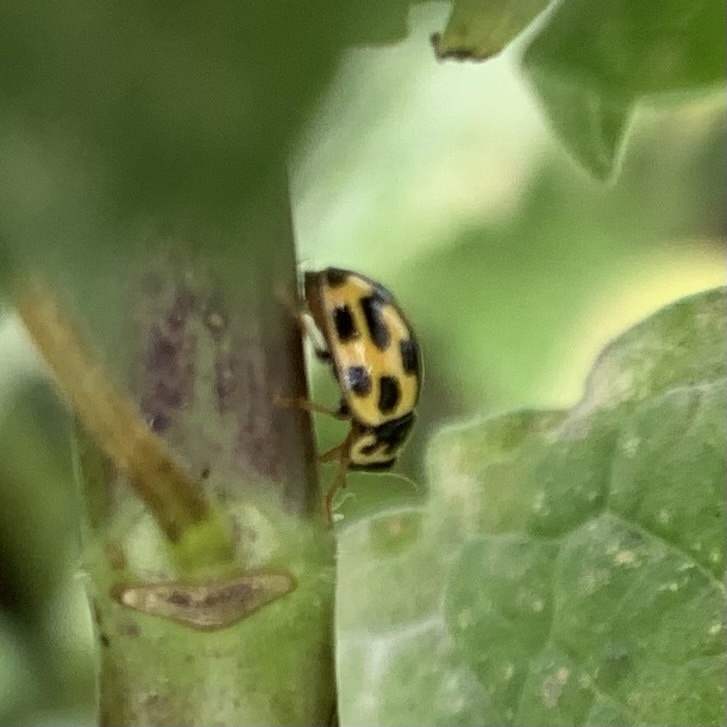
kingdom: Animalia
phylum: Arthropoda
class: Insecta
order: Coleoptera
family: Coccinellidae
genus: Propylaea
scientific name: Propylaea quatuordecimpunctata
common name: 14-spotted ladybird beetle
